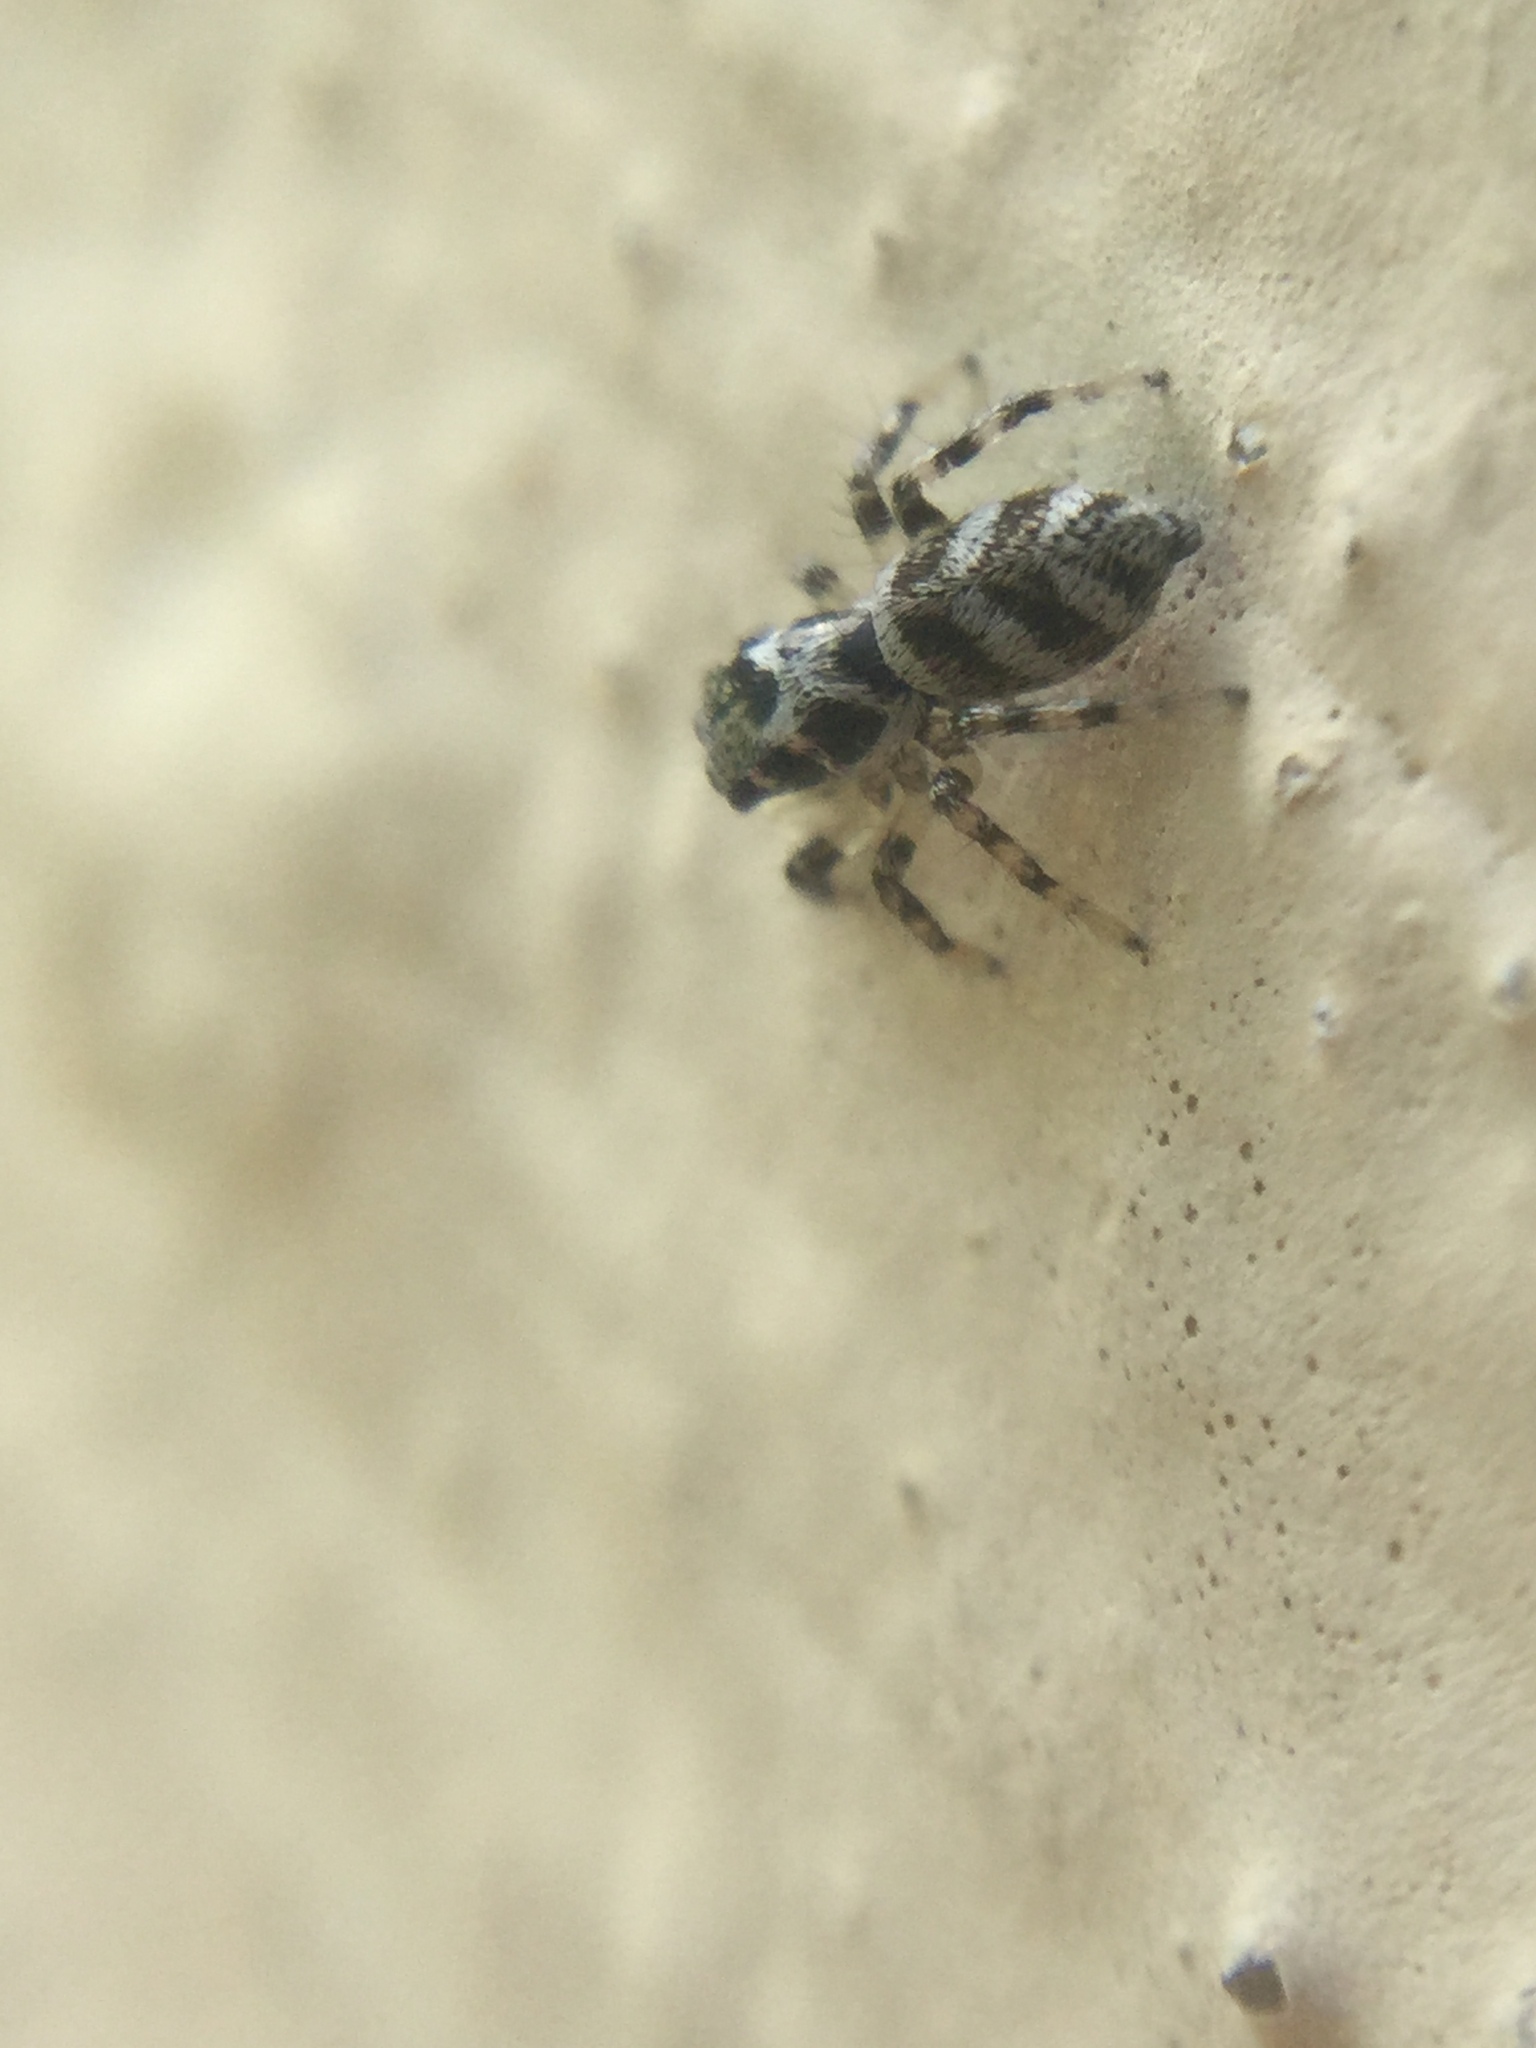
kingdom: Animalia
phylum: Arthropoda
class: Arachnida
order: Araneae
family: Salticidae
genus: Salticus
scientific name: Salticus scenicus
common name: Zebra jumper
